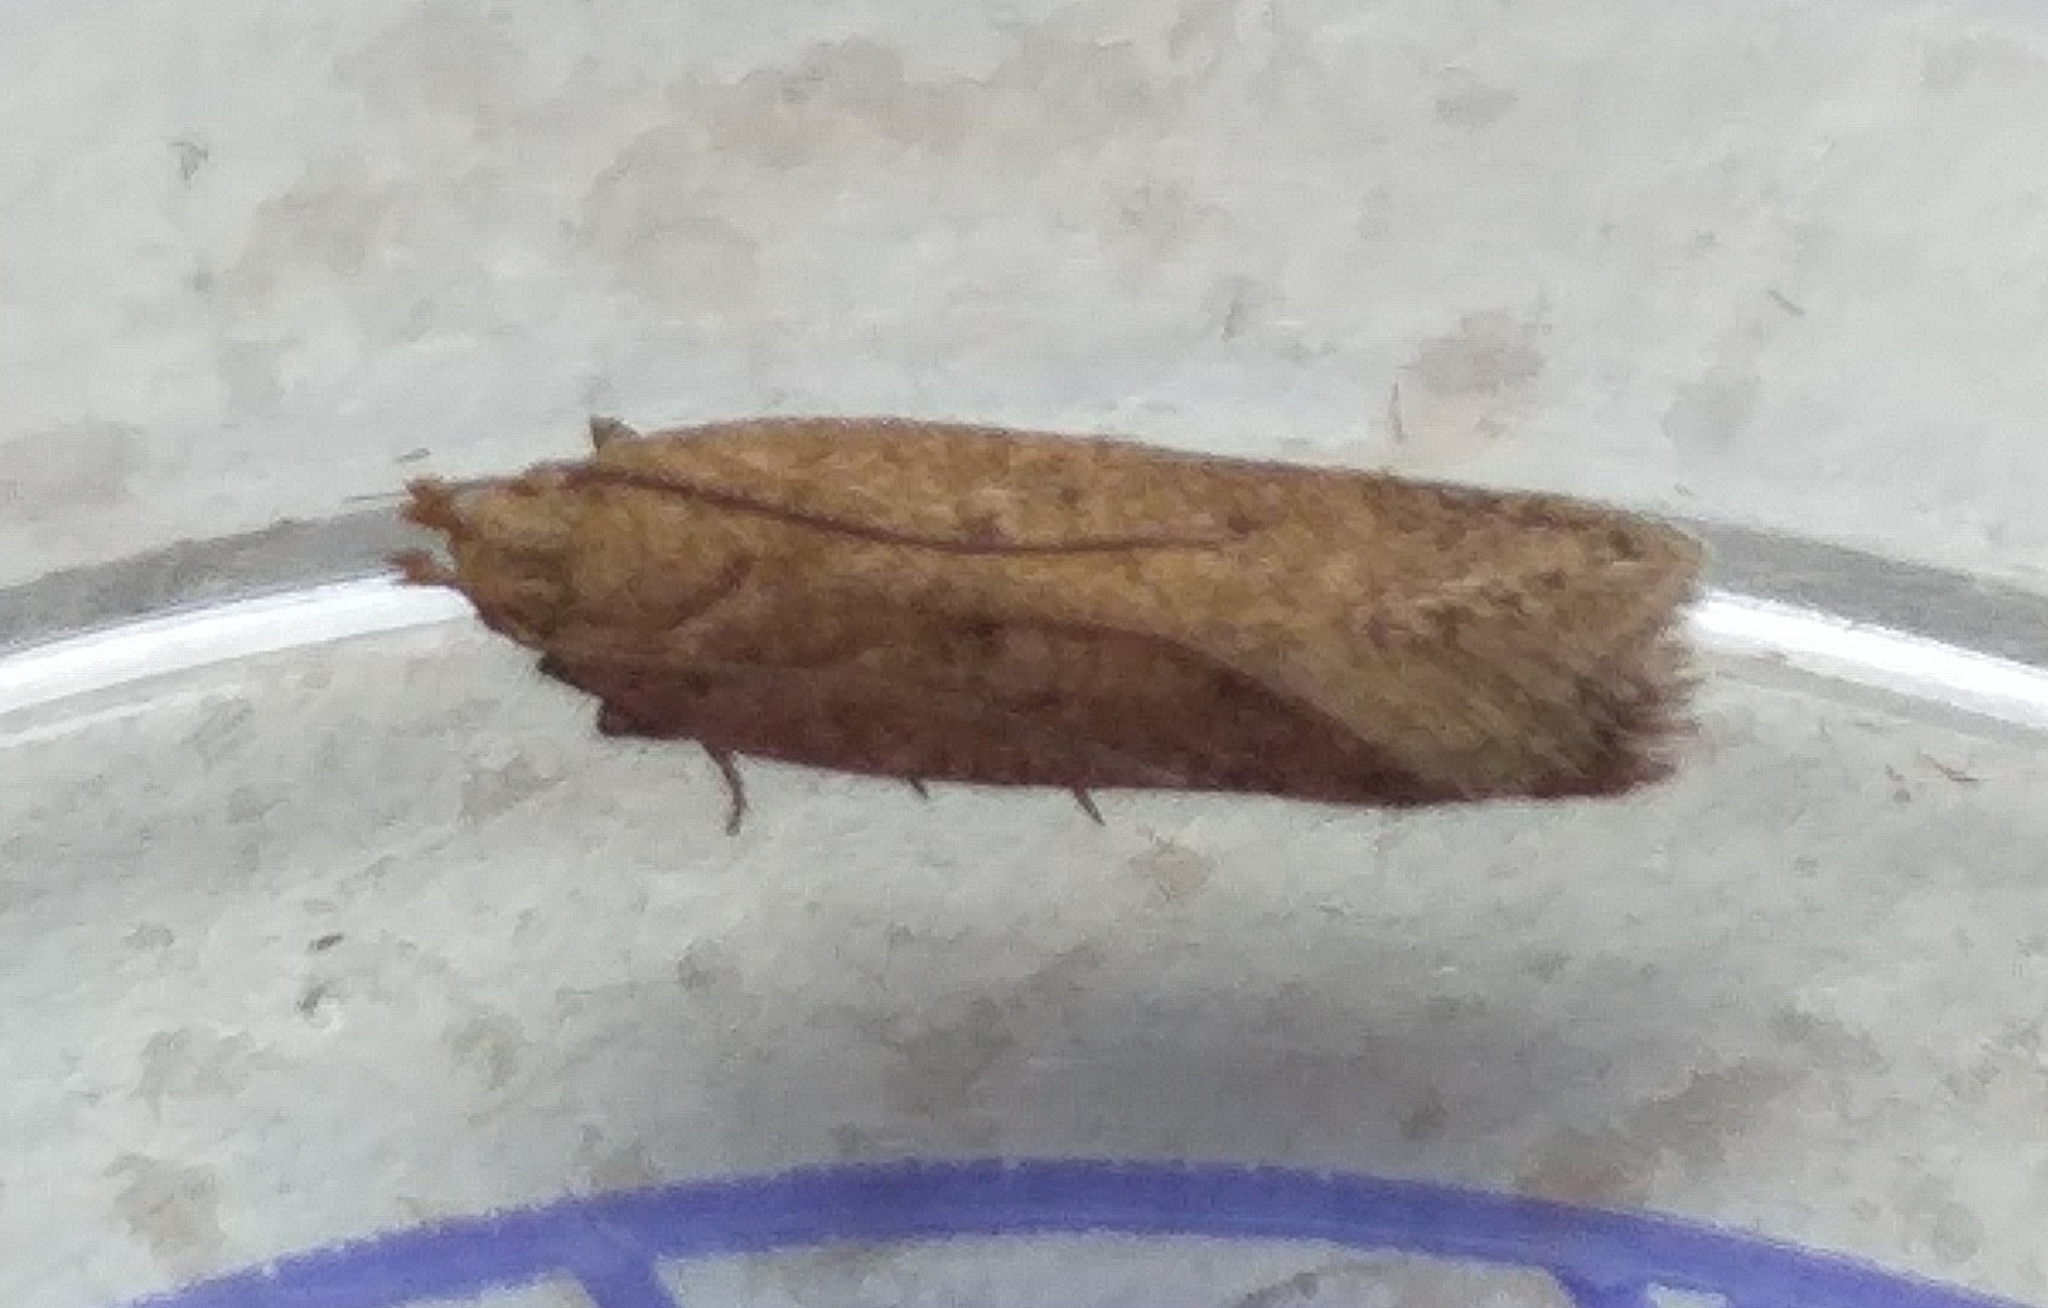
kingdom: Animalia
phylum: Arthropoda
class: Insecta
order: Lepidoptera
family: Gelechiidae
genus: Bryotropha
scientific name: Bryotropha terrella
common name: Cinerous groundling
